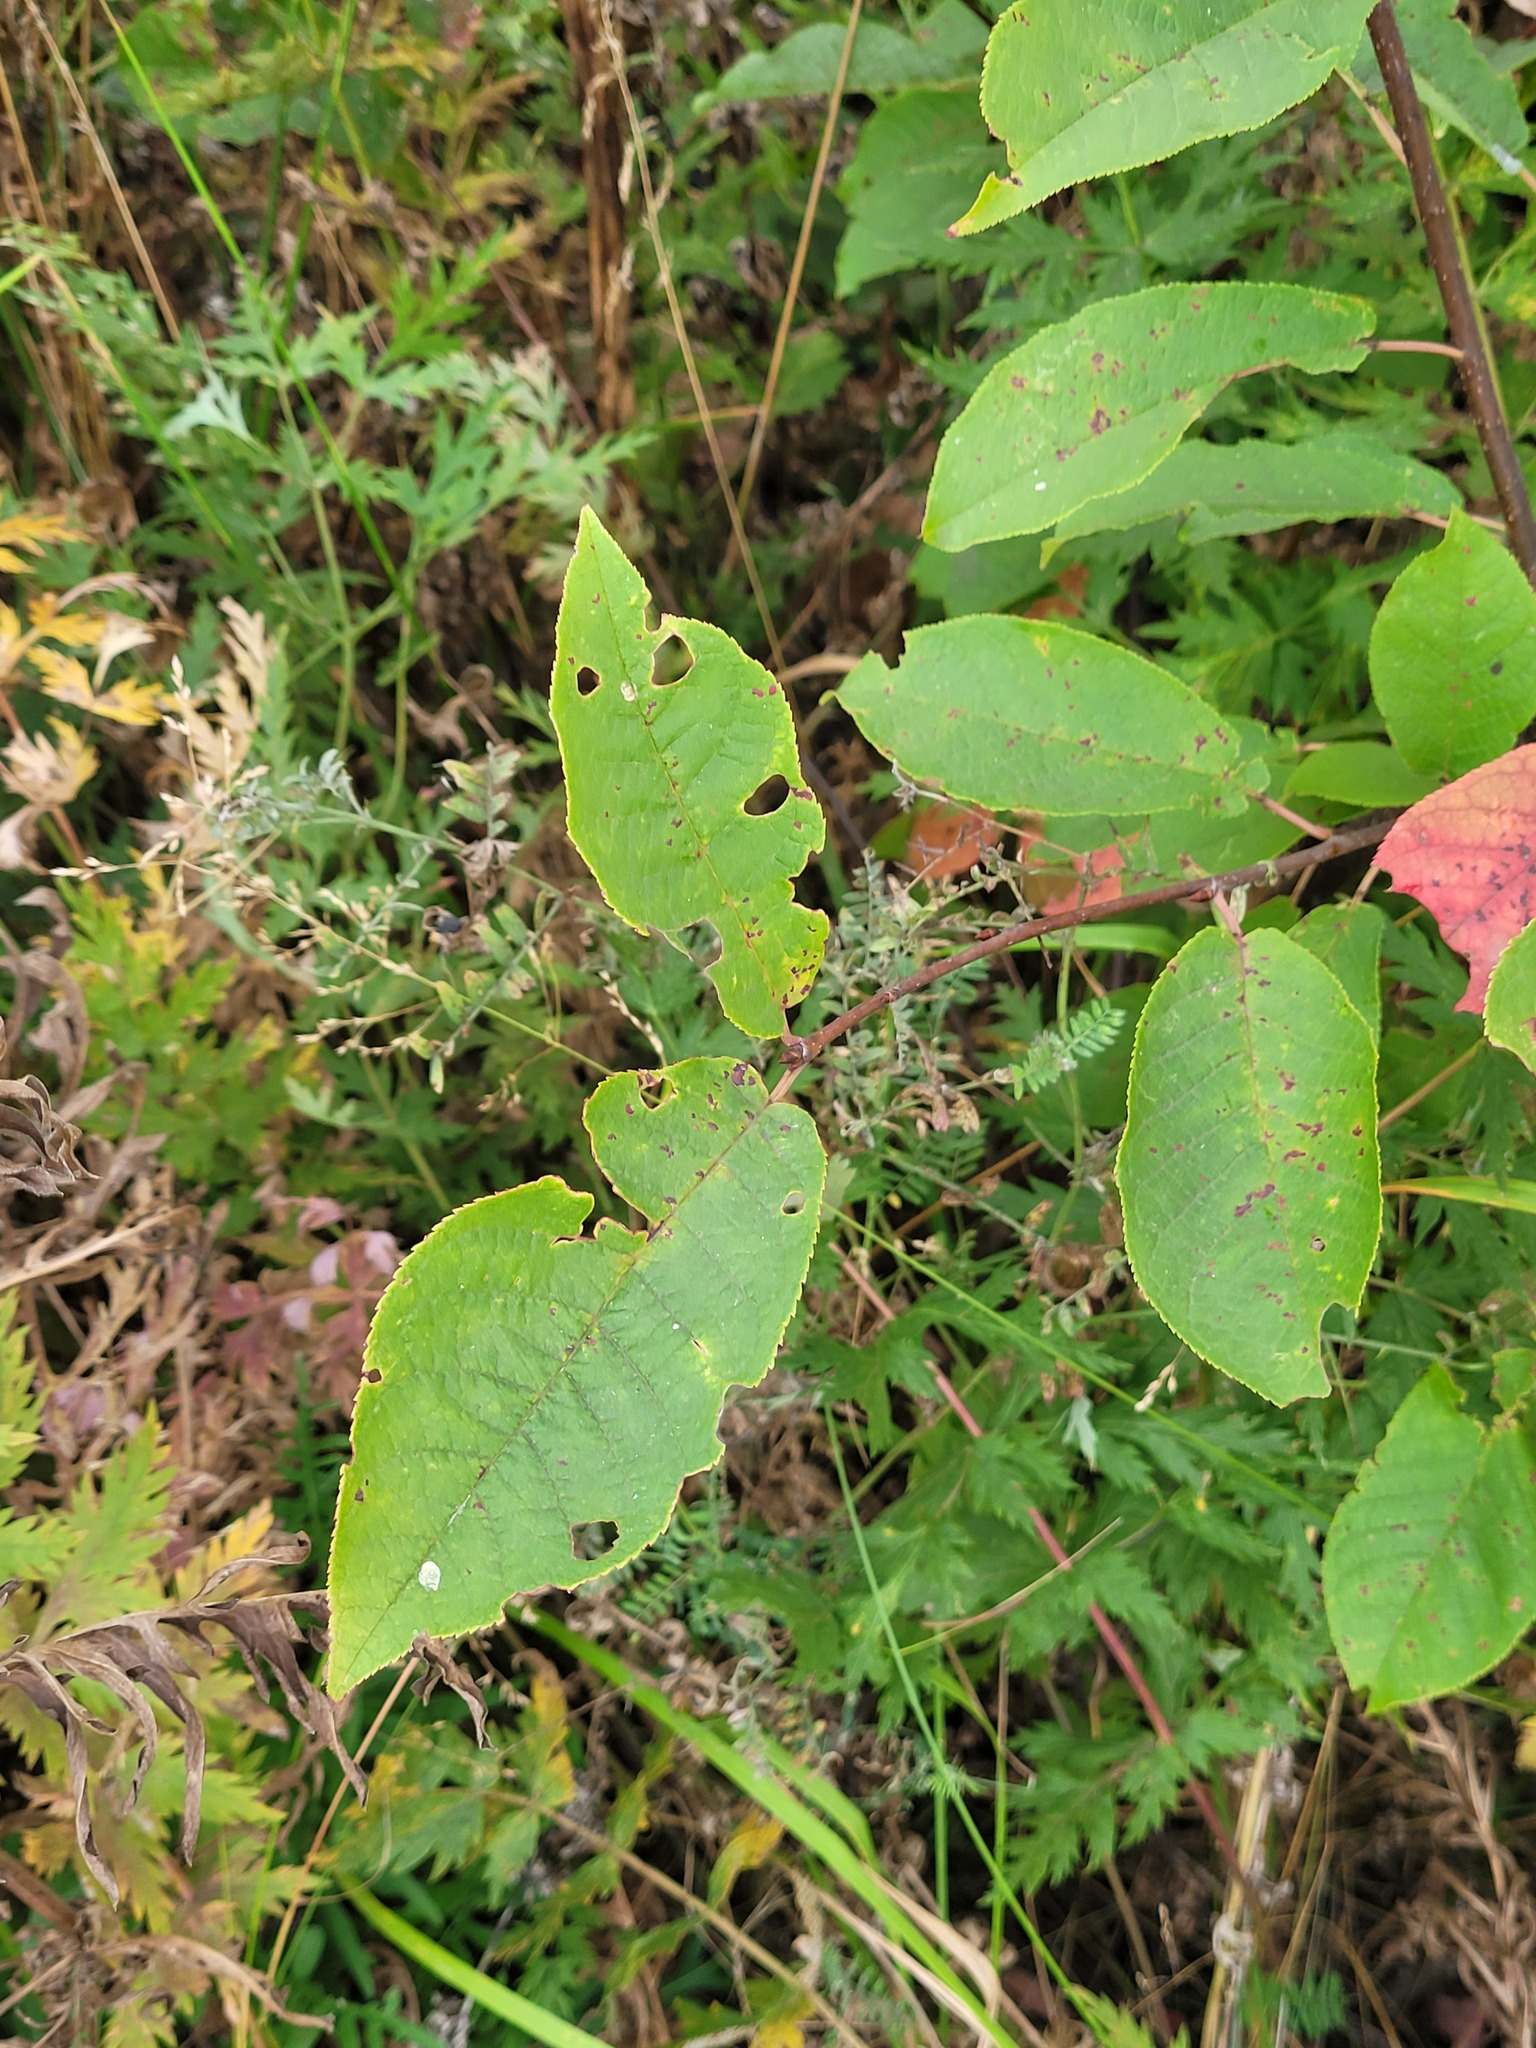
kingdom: Plantae
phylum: Tracheophyta
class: Magnoliopsida
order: Rosales
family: Rosaceae
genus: Prunus
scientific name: Prunus padus
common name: Bird cherry
